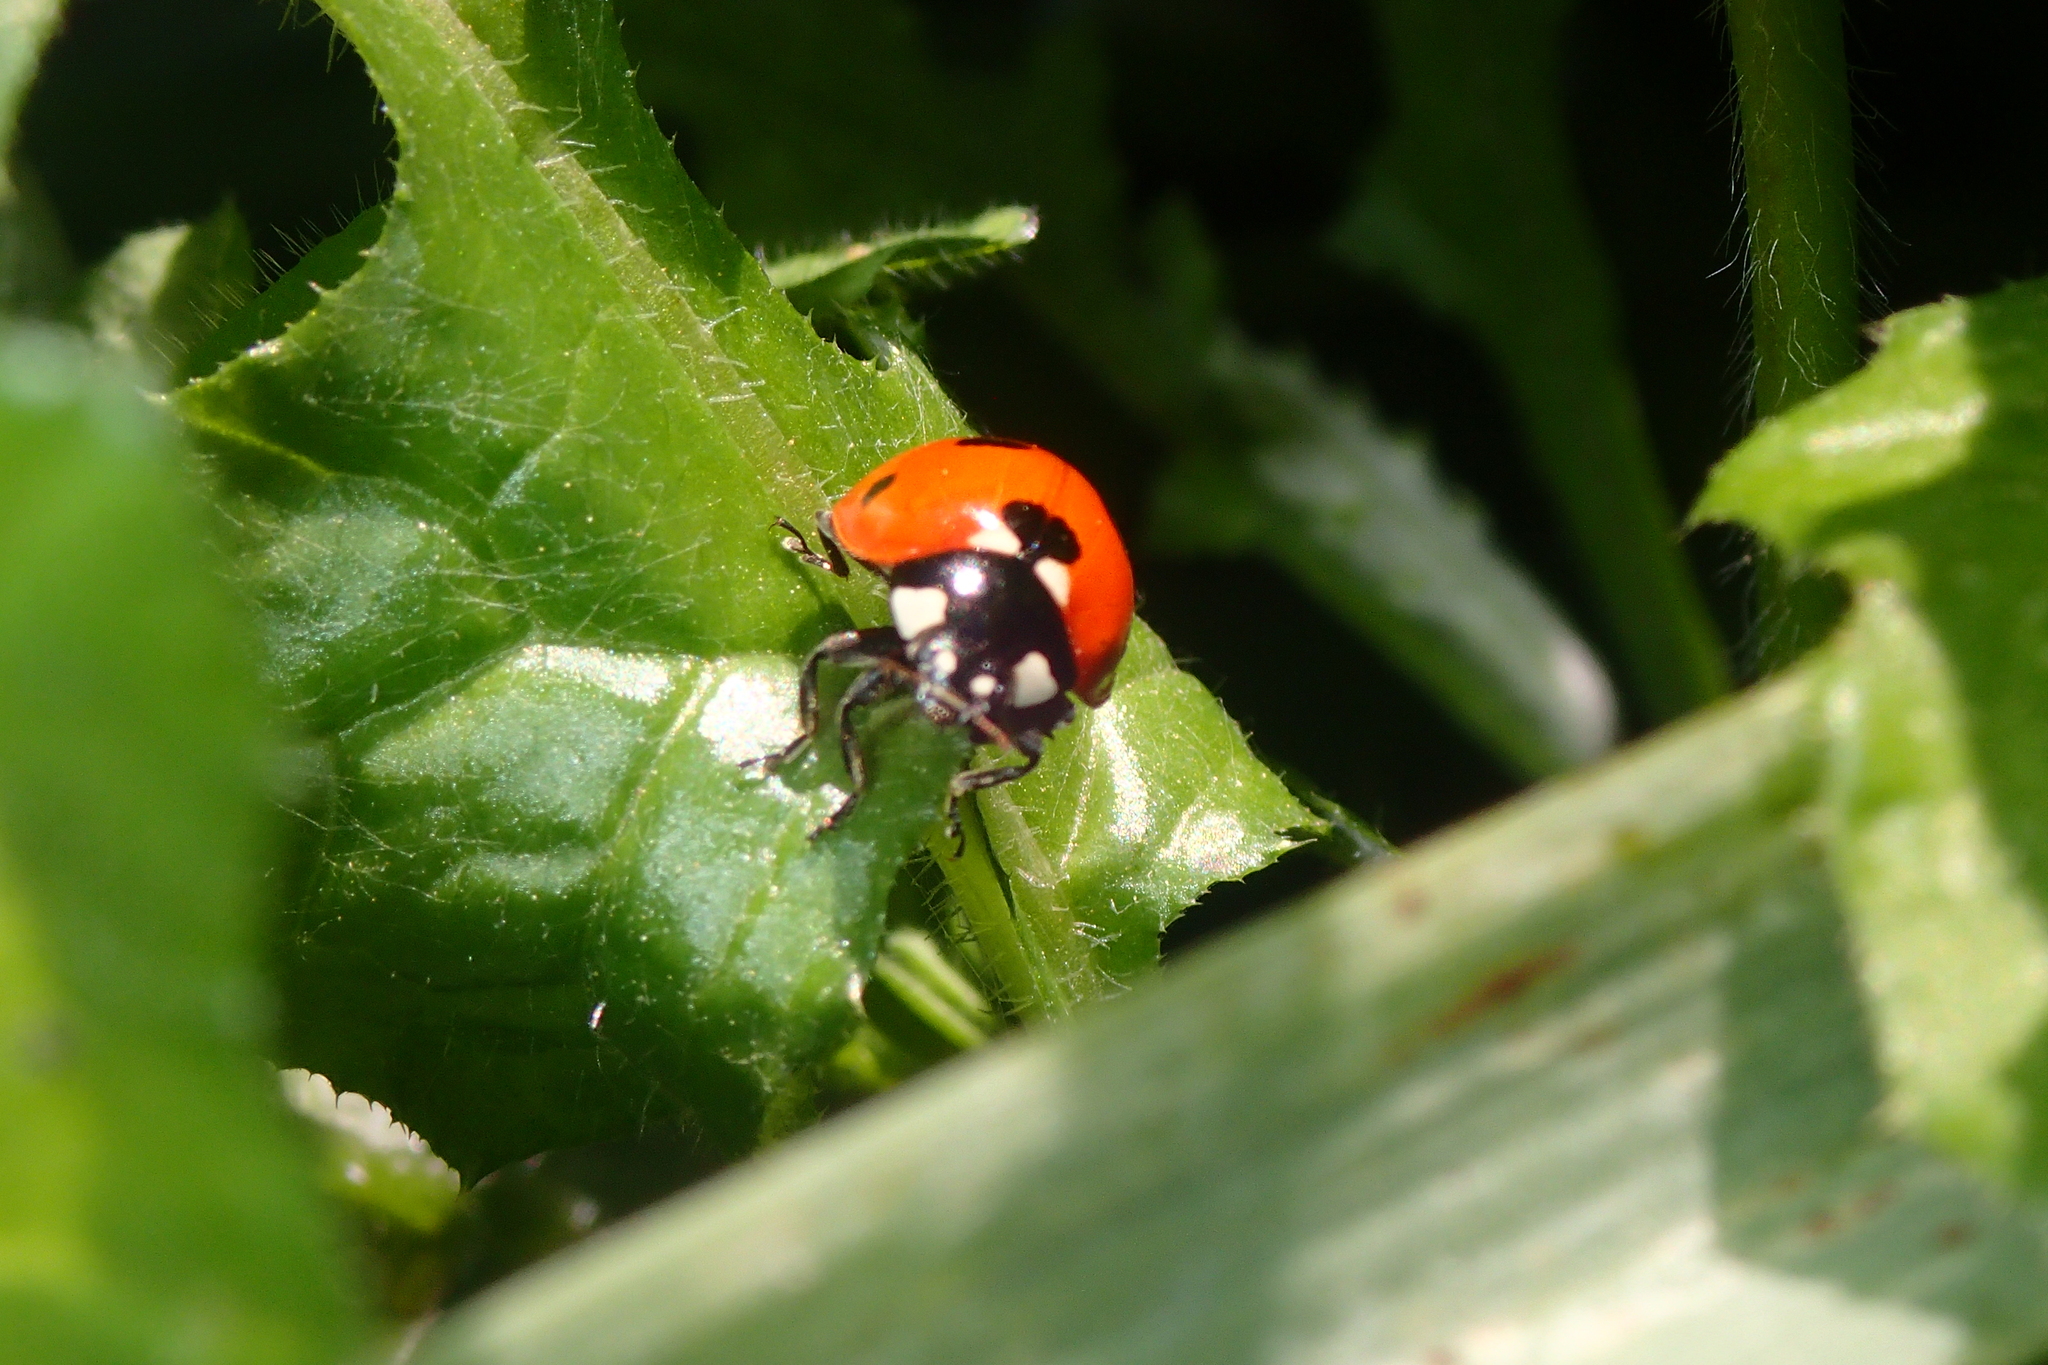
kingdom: Animalia
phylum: Arthropoda
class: Insecta
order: Coleoptera
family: Coccinellidae
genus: Coccinella
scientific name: Coccinella septempunctata
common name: Sevenspotted lady beetle
